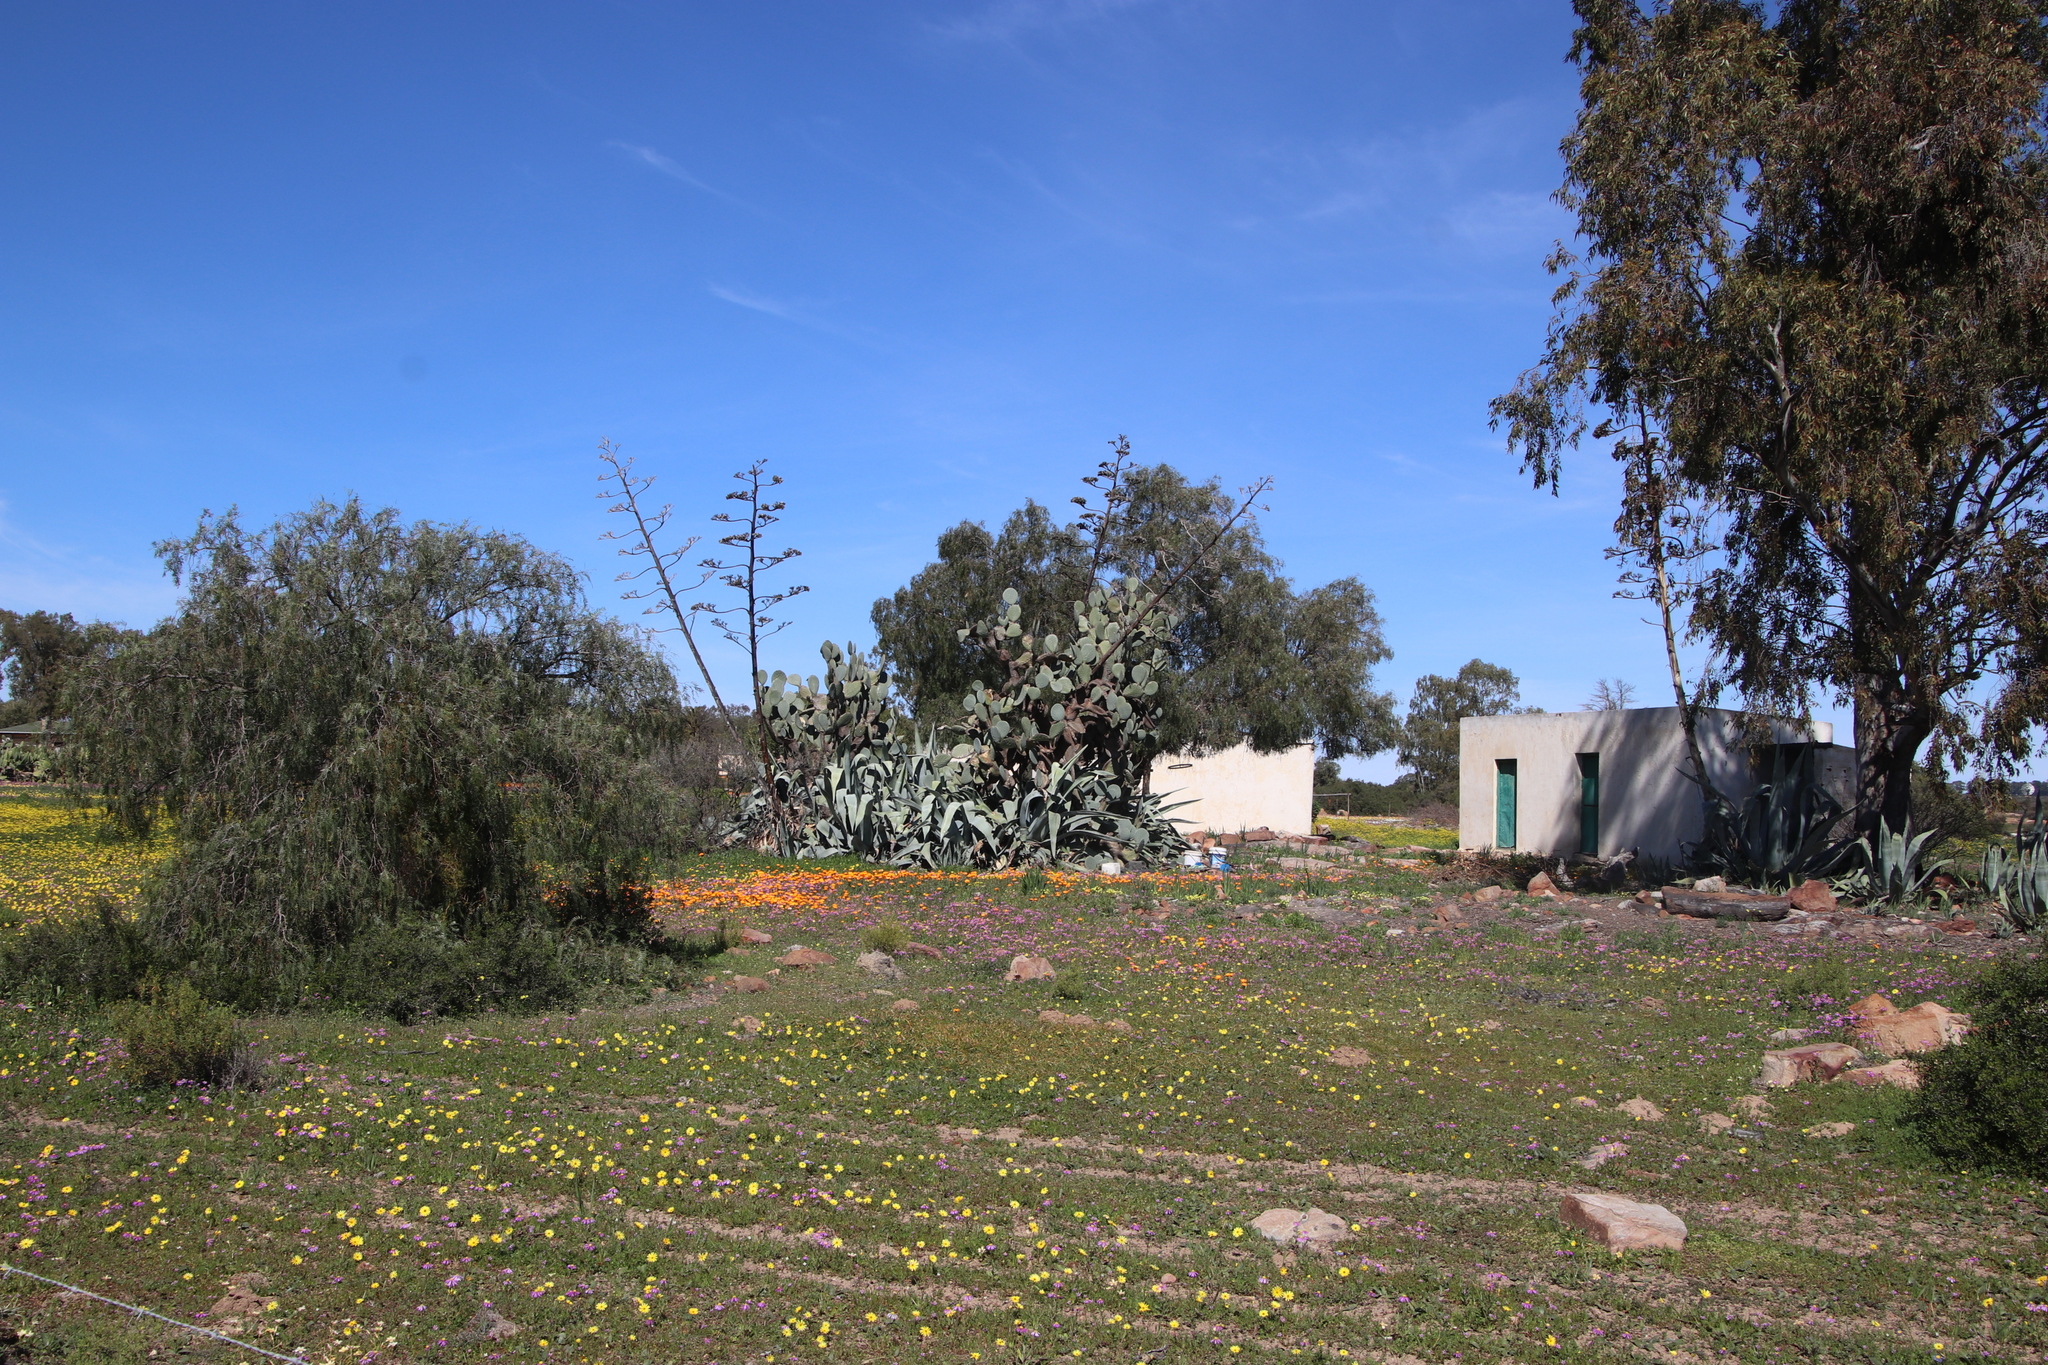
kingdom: Plantae
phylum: Tracheophyta
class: Liliopsida
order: Asparagales
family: Asparagaceae
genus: Agave
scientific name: Agave americana
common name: Centuryplant
